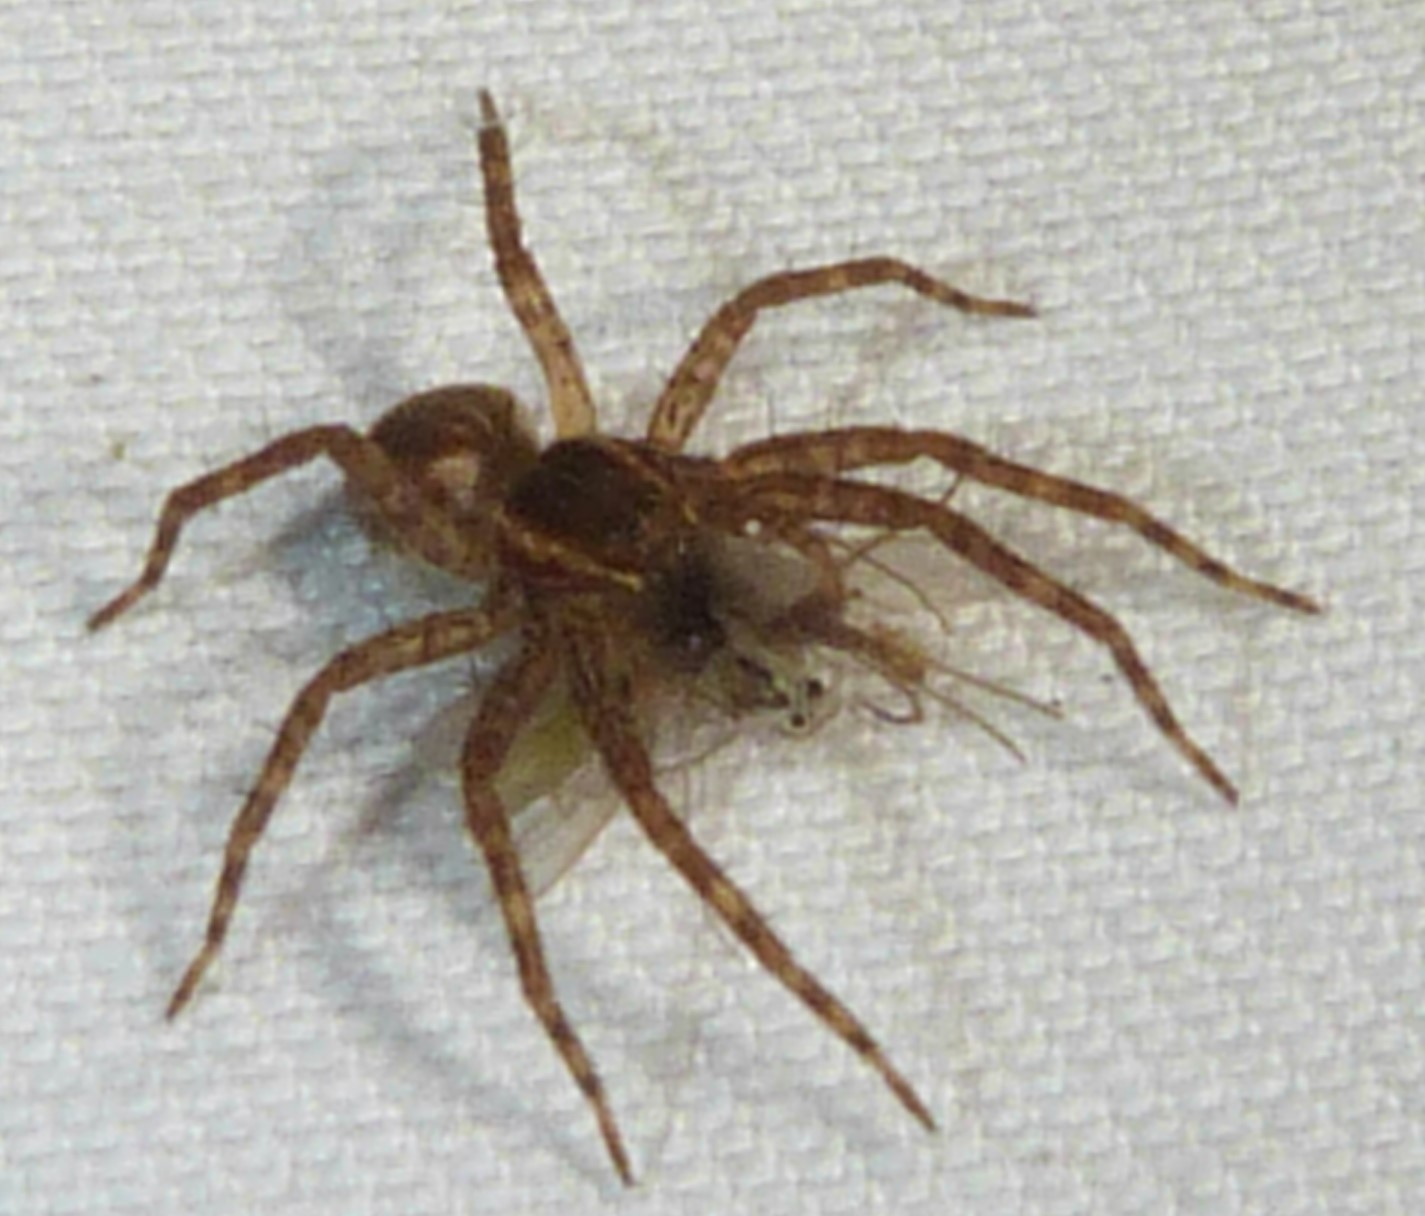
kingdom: Animalia
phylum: Arthropoda
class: Arachnida
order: Araneae
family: Pisauridae
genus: Dolomedes
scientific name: Dolomedes triton
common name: Six-spotted fishing spider
